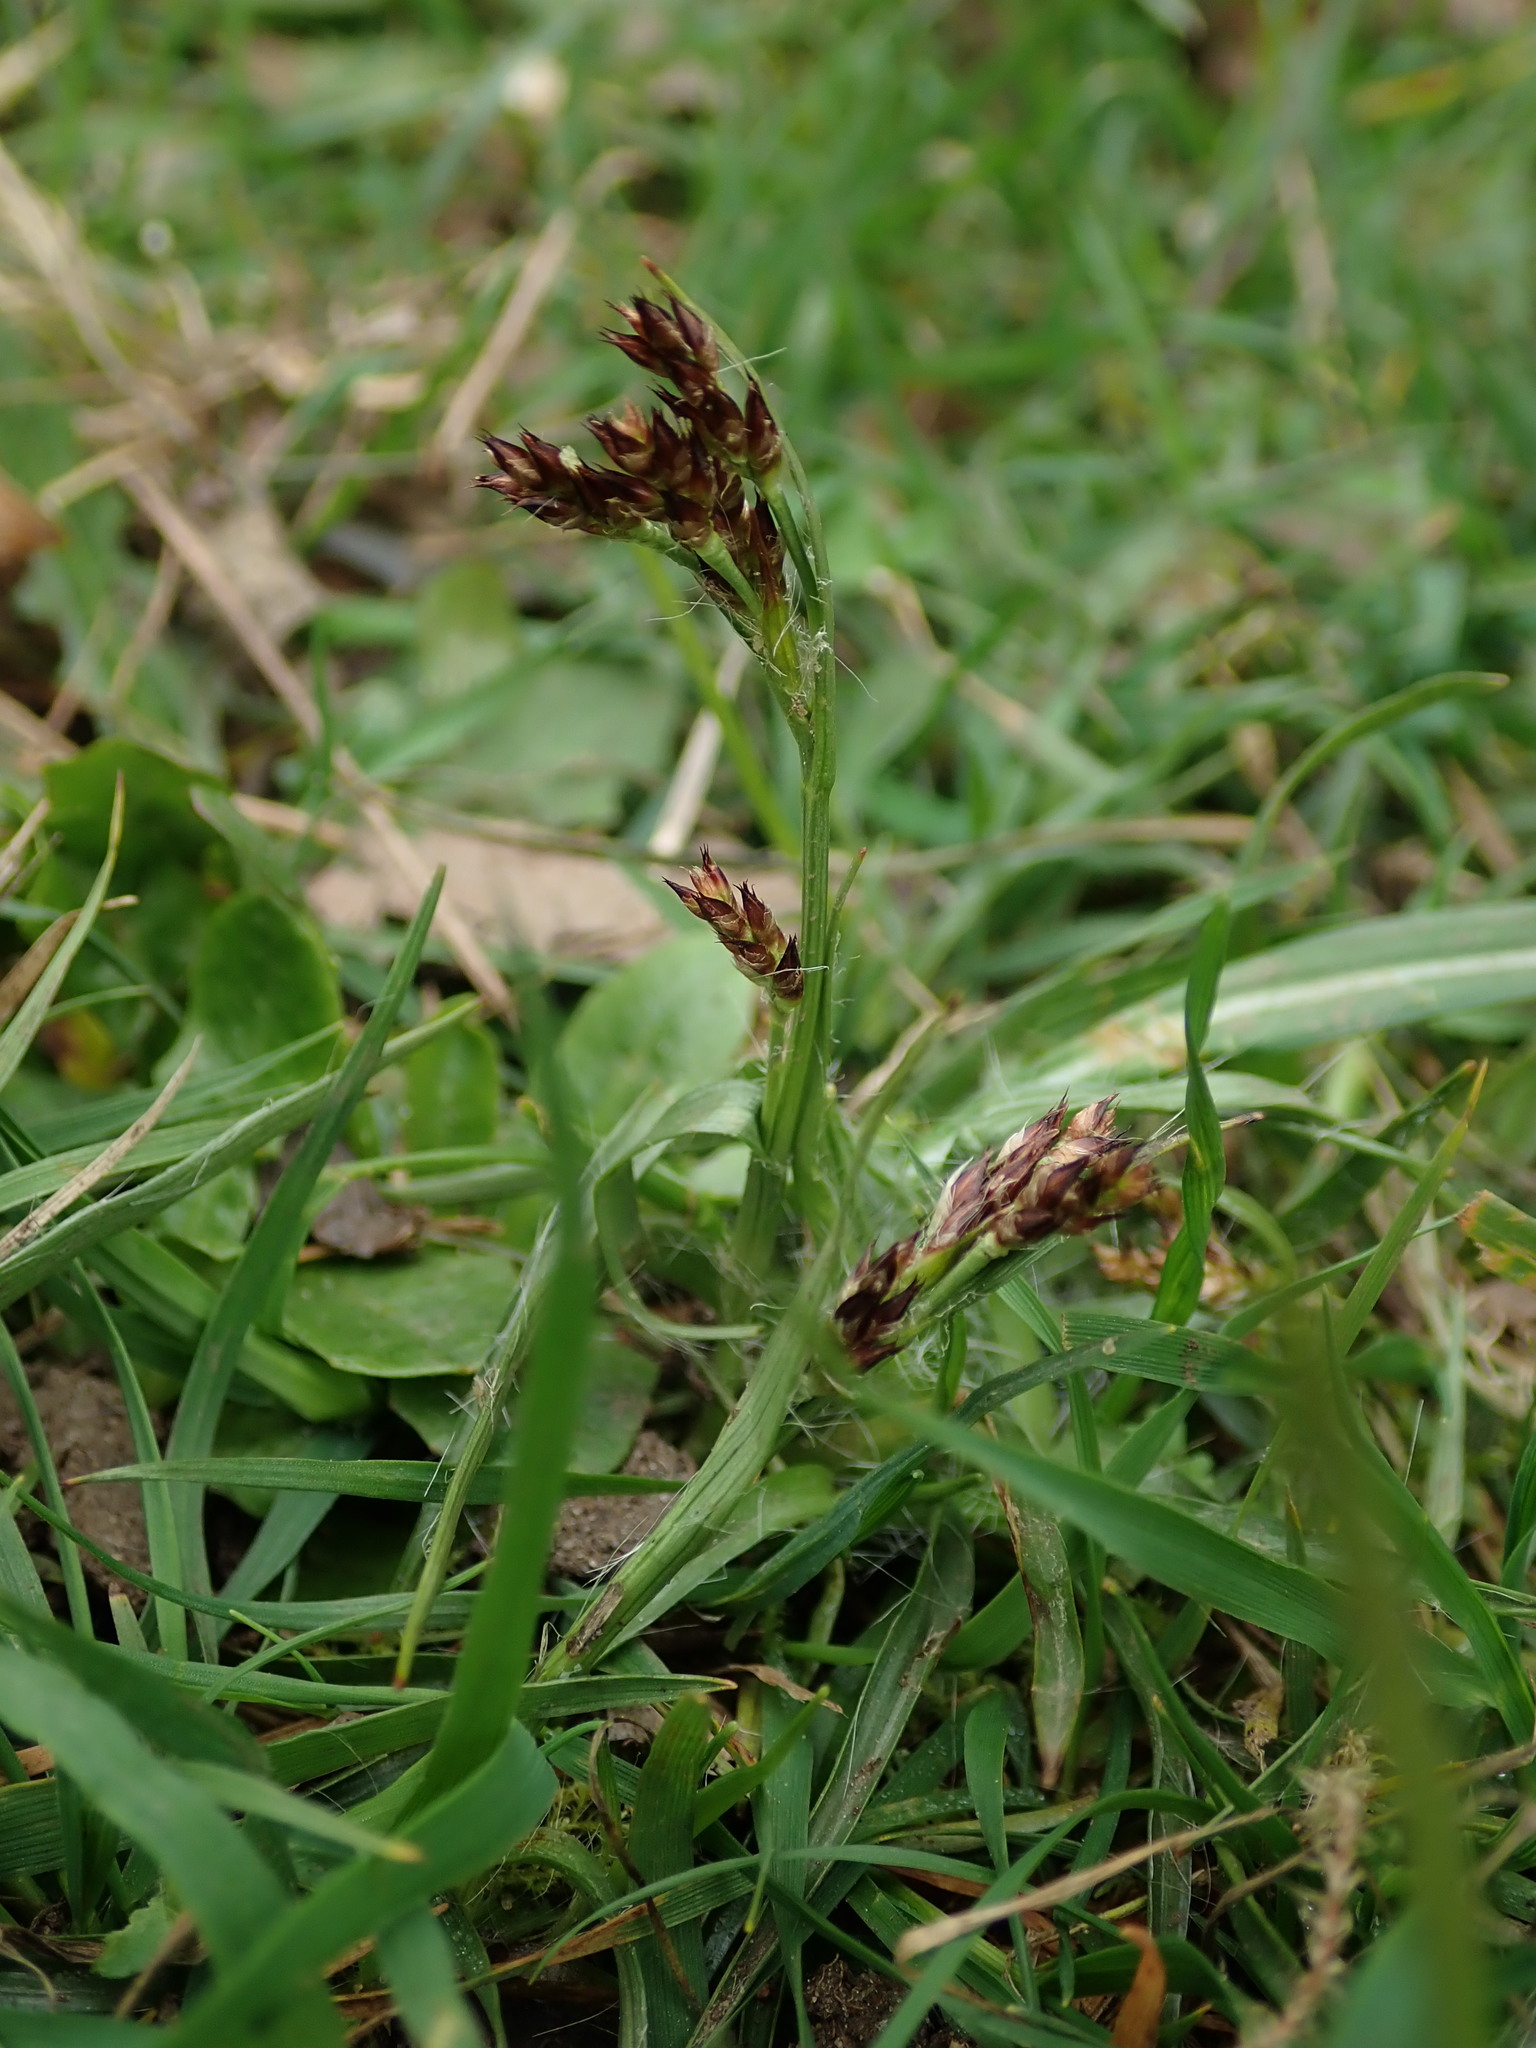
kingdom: Plantae
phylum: Tracheophyta
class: Liliopsida
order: Poales
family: Juncaceae
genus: Luzula
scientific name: Luzula campestris
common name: Field wood-rush
